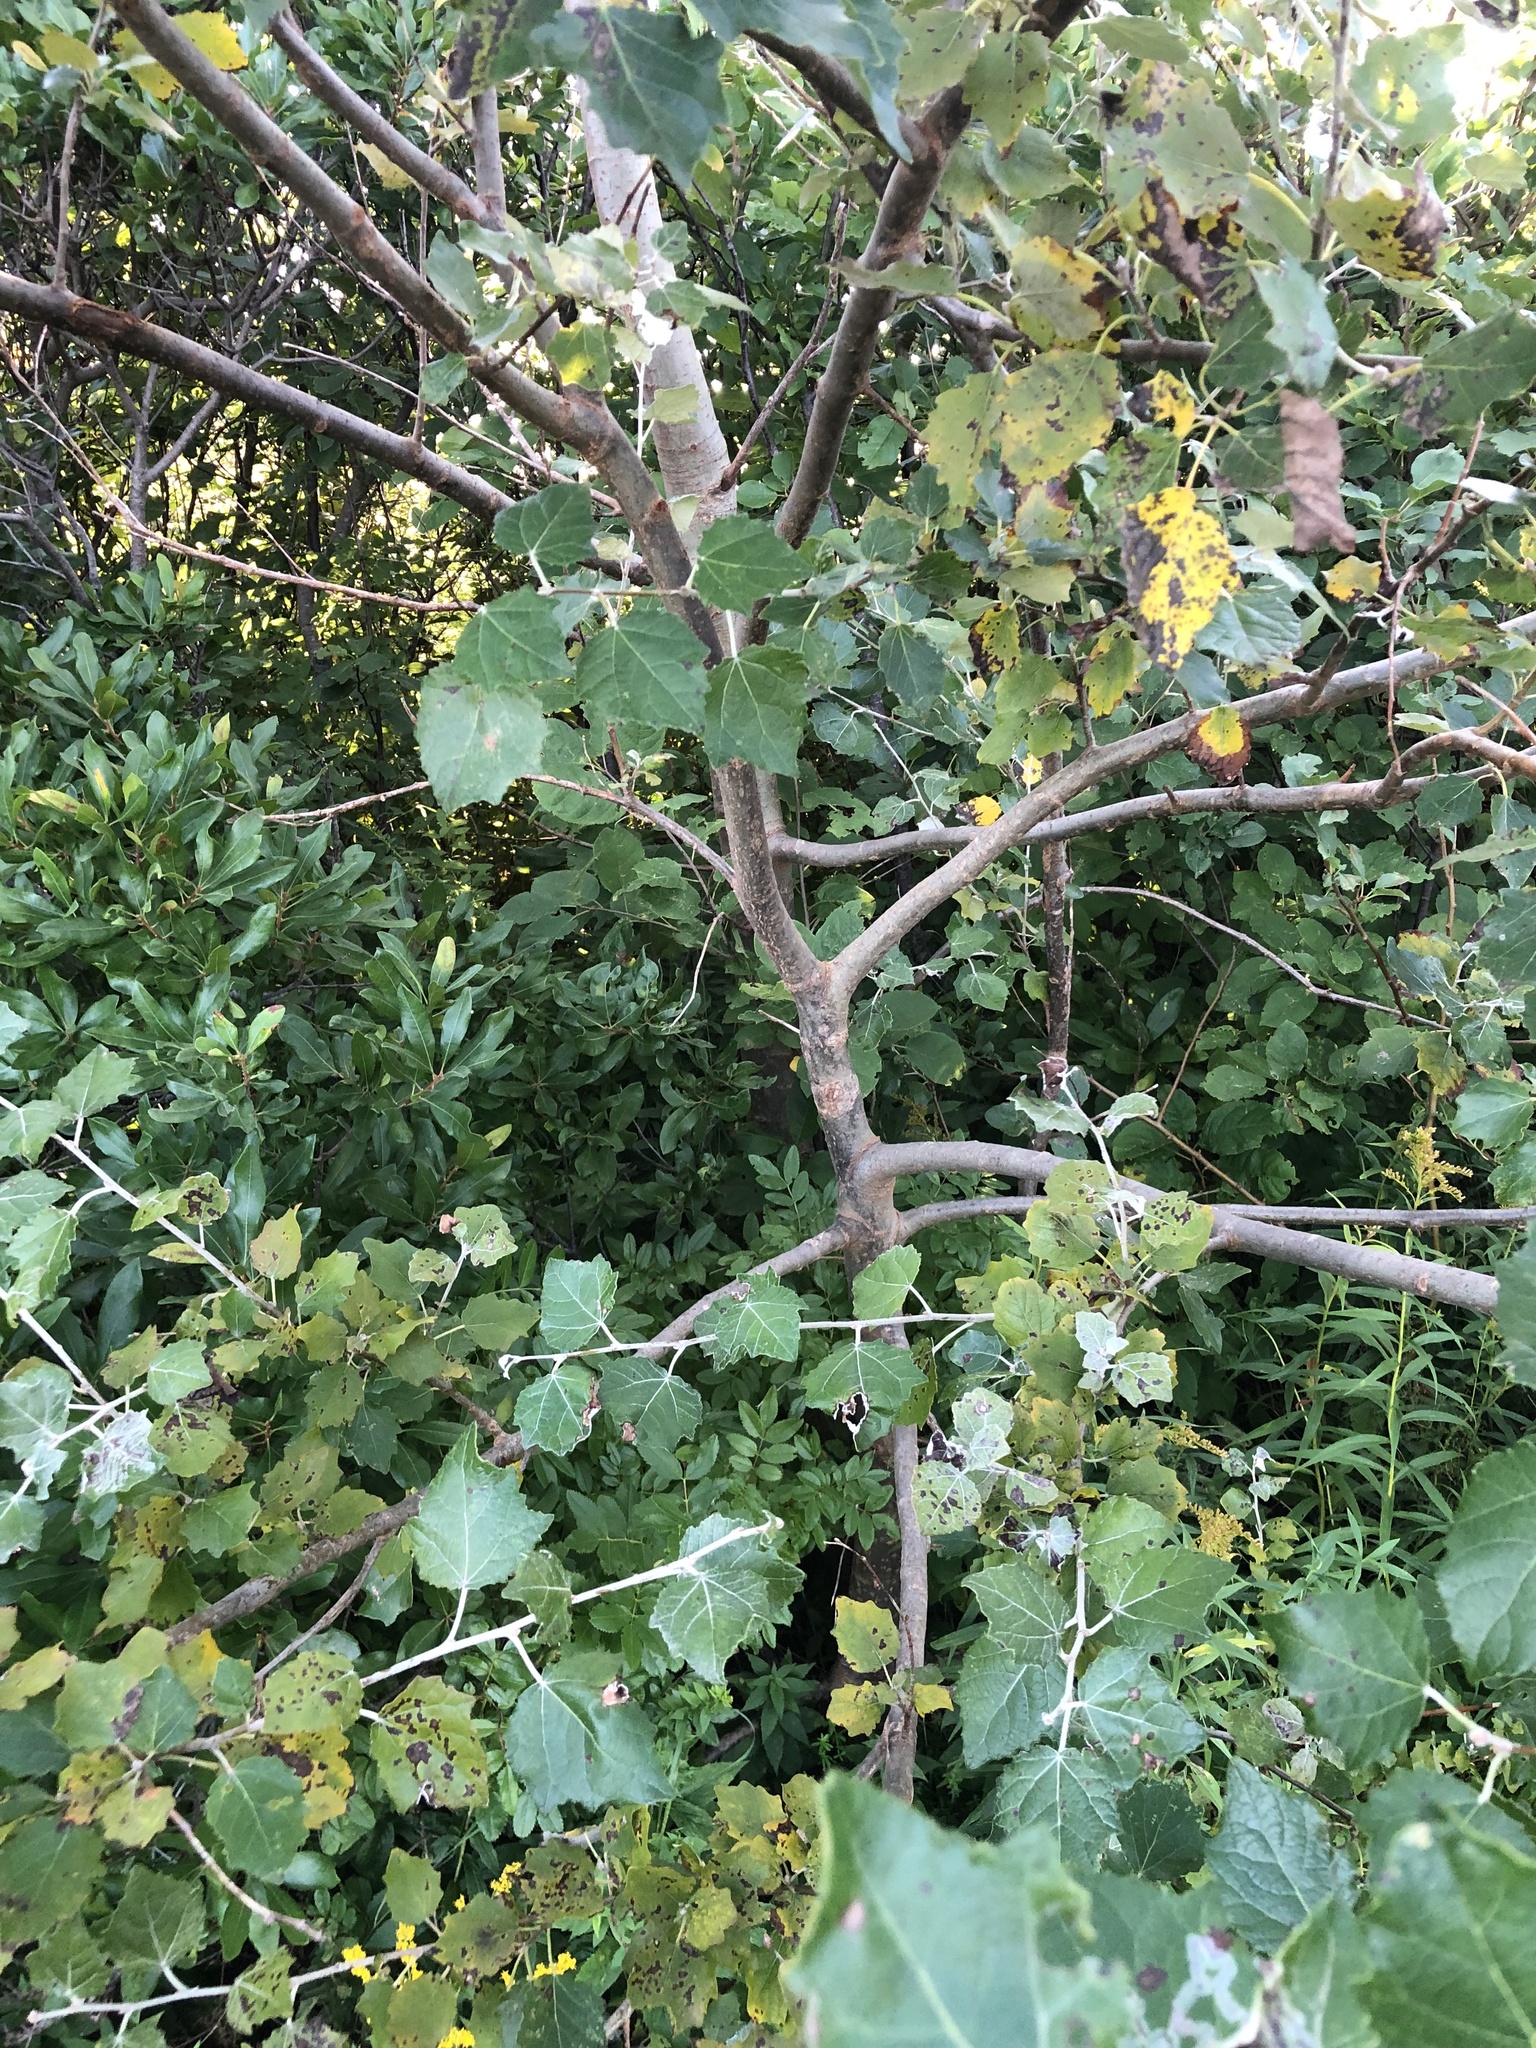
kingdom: Plantae
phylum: Tracheophyta
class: Magnoliopsida
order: Malpighiales
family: Salicaceae
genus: Populus
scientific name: Populus alba
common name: White poplar
